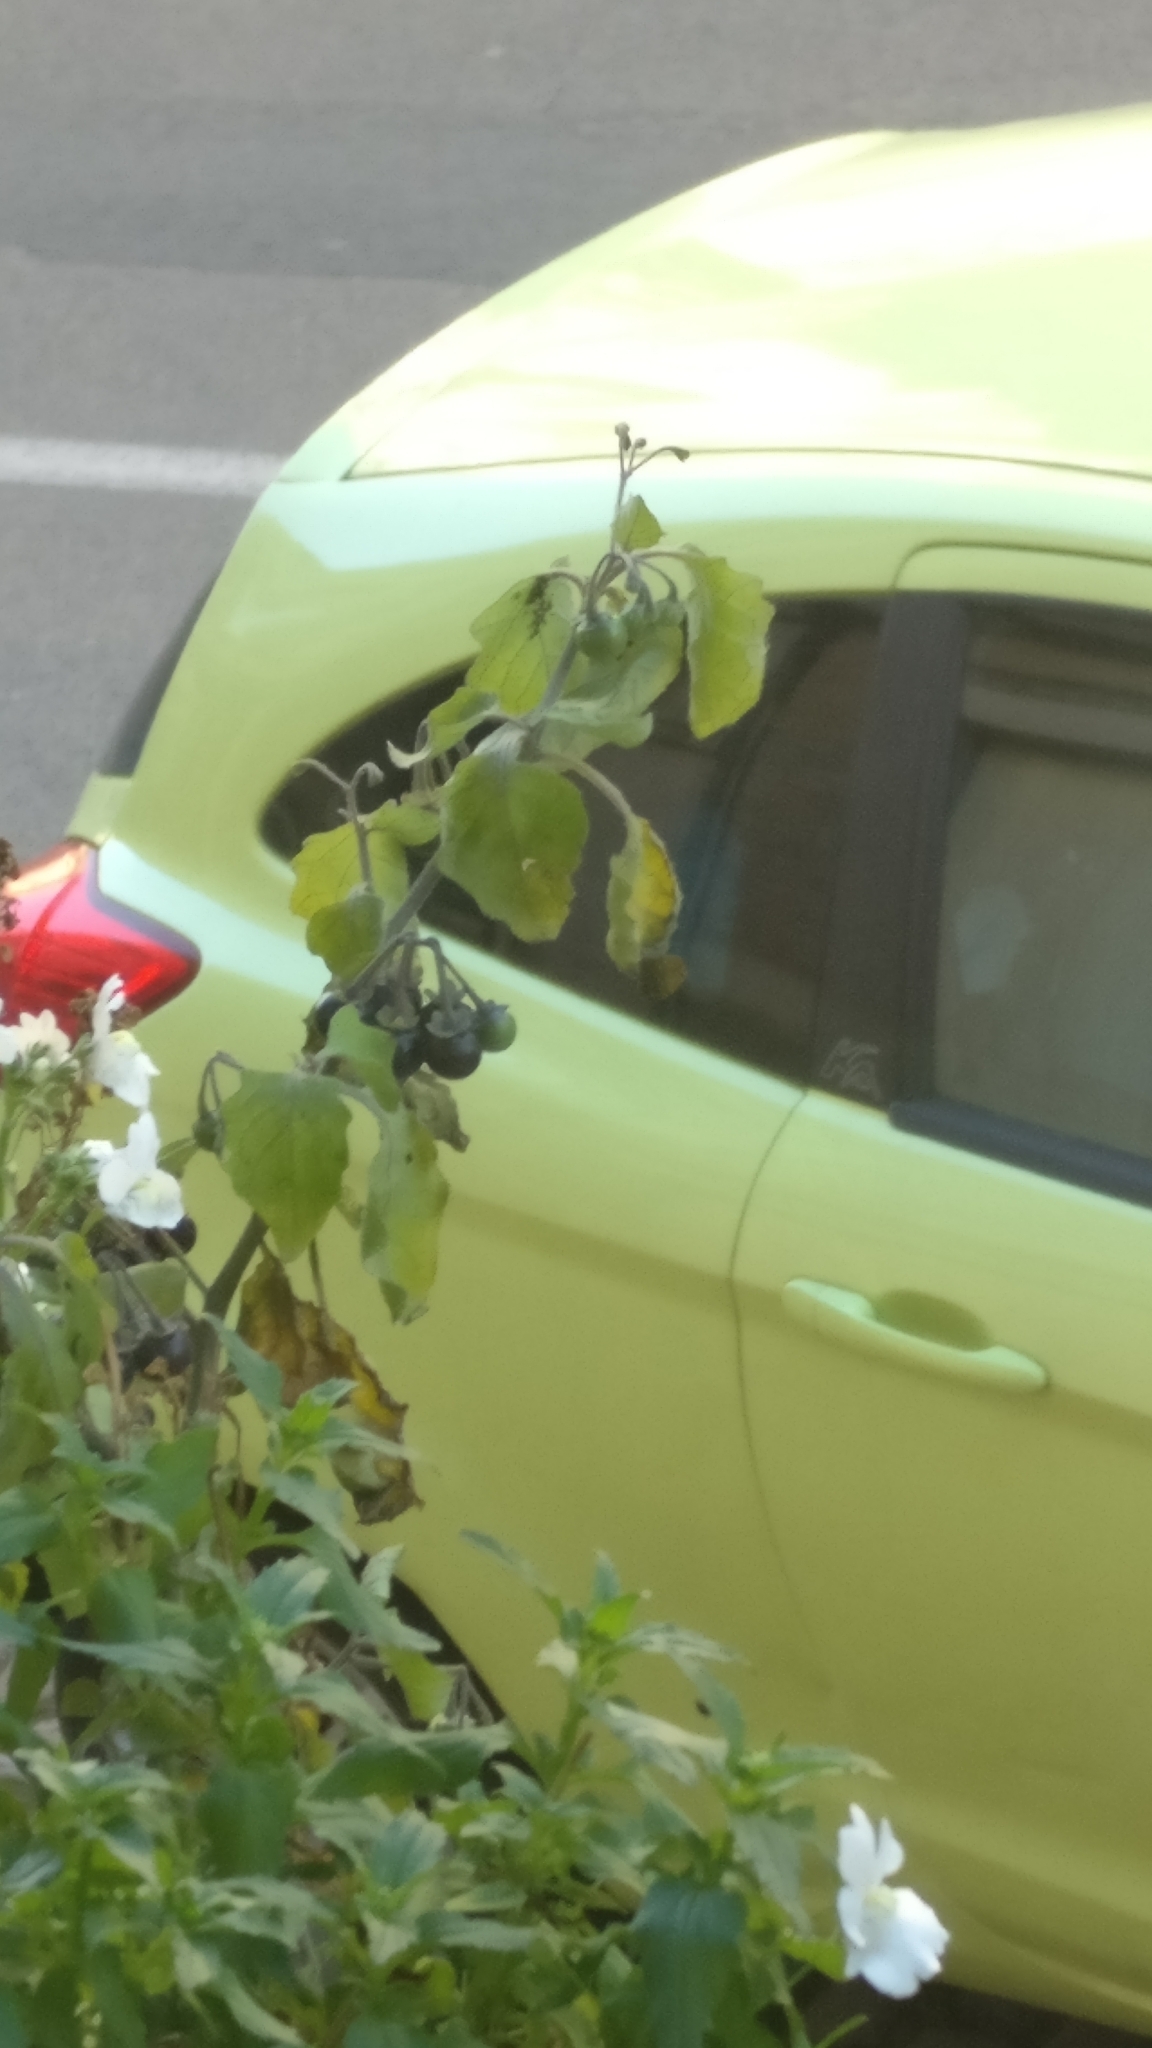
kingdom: Plantae
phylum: Tracheophyta
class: Magnoliopsida
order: Solanales
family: Solanaceae
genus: Solanum
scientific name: Solanum nigrum
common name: Black nightshade
